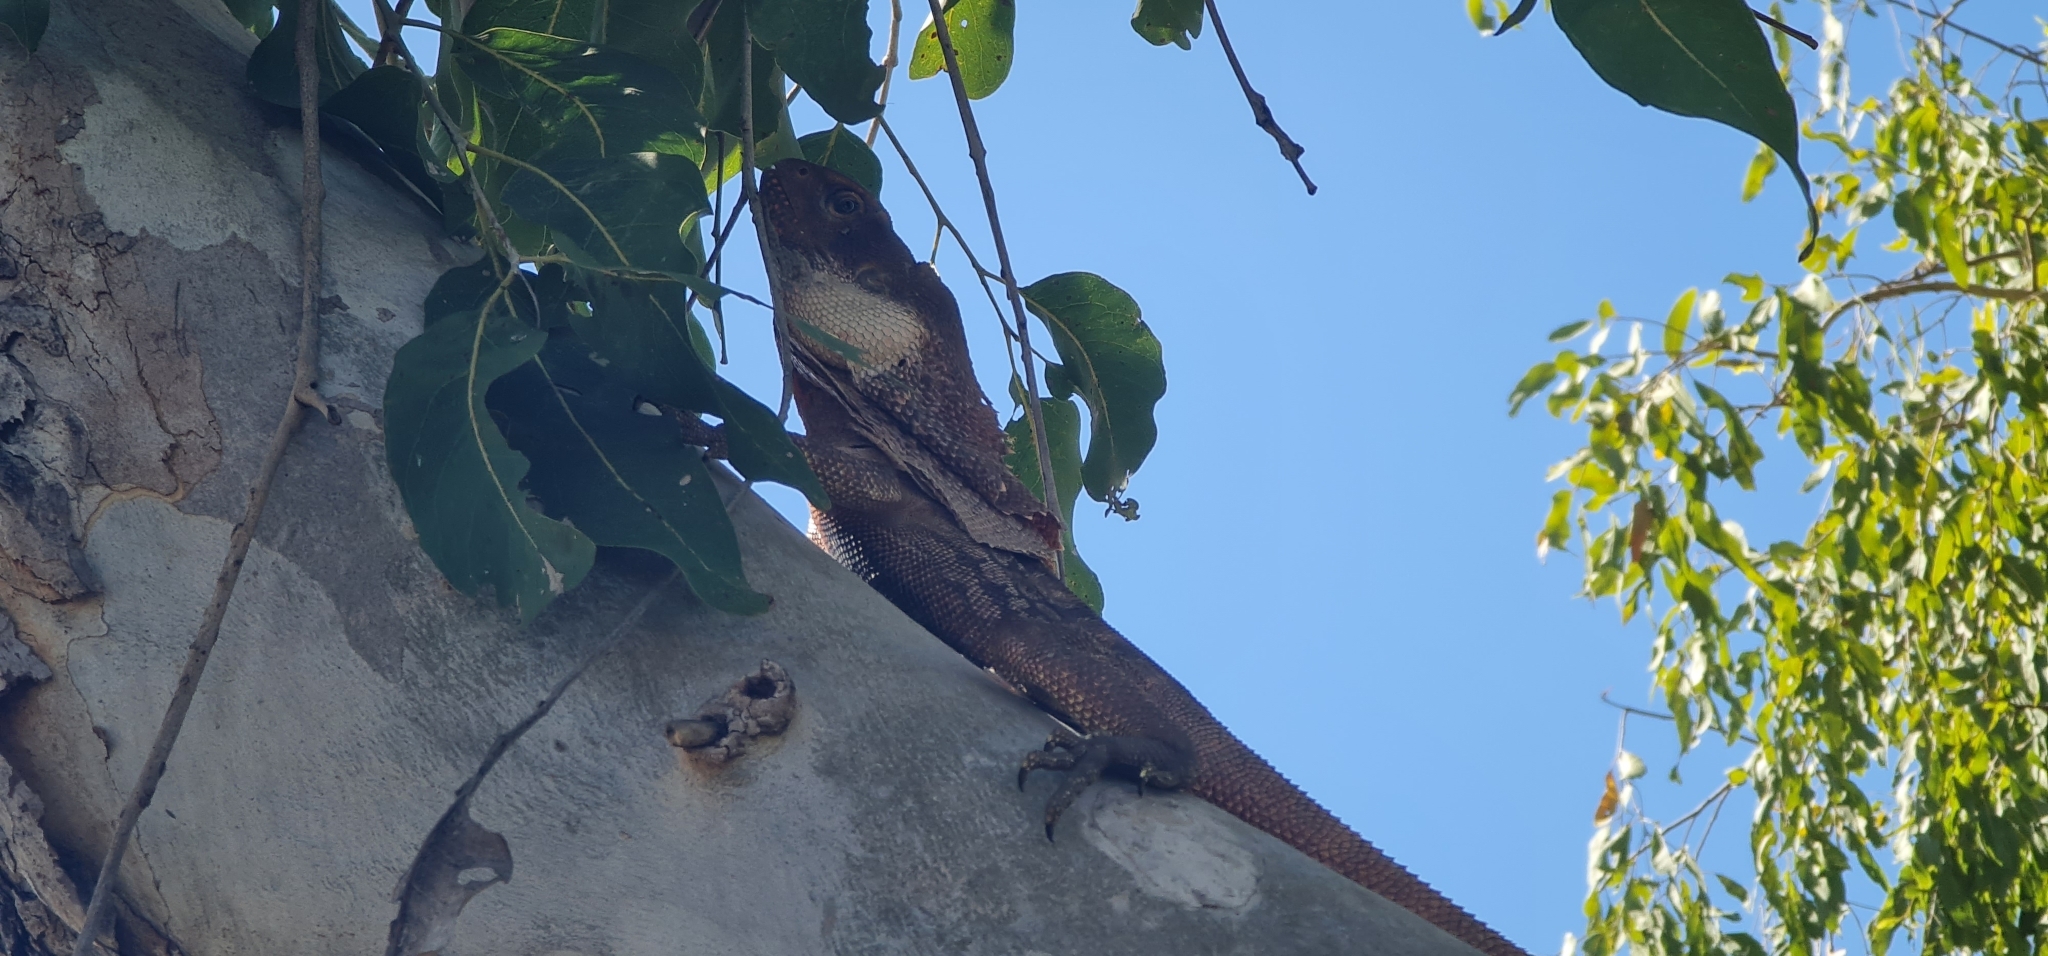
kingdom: Animalia
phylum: Chordata
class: Squamata
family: Agamidae
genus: Chlamydosaurus
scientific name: Chlamydosaurus kingii
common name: Frilled lizard
